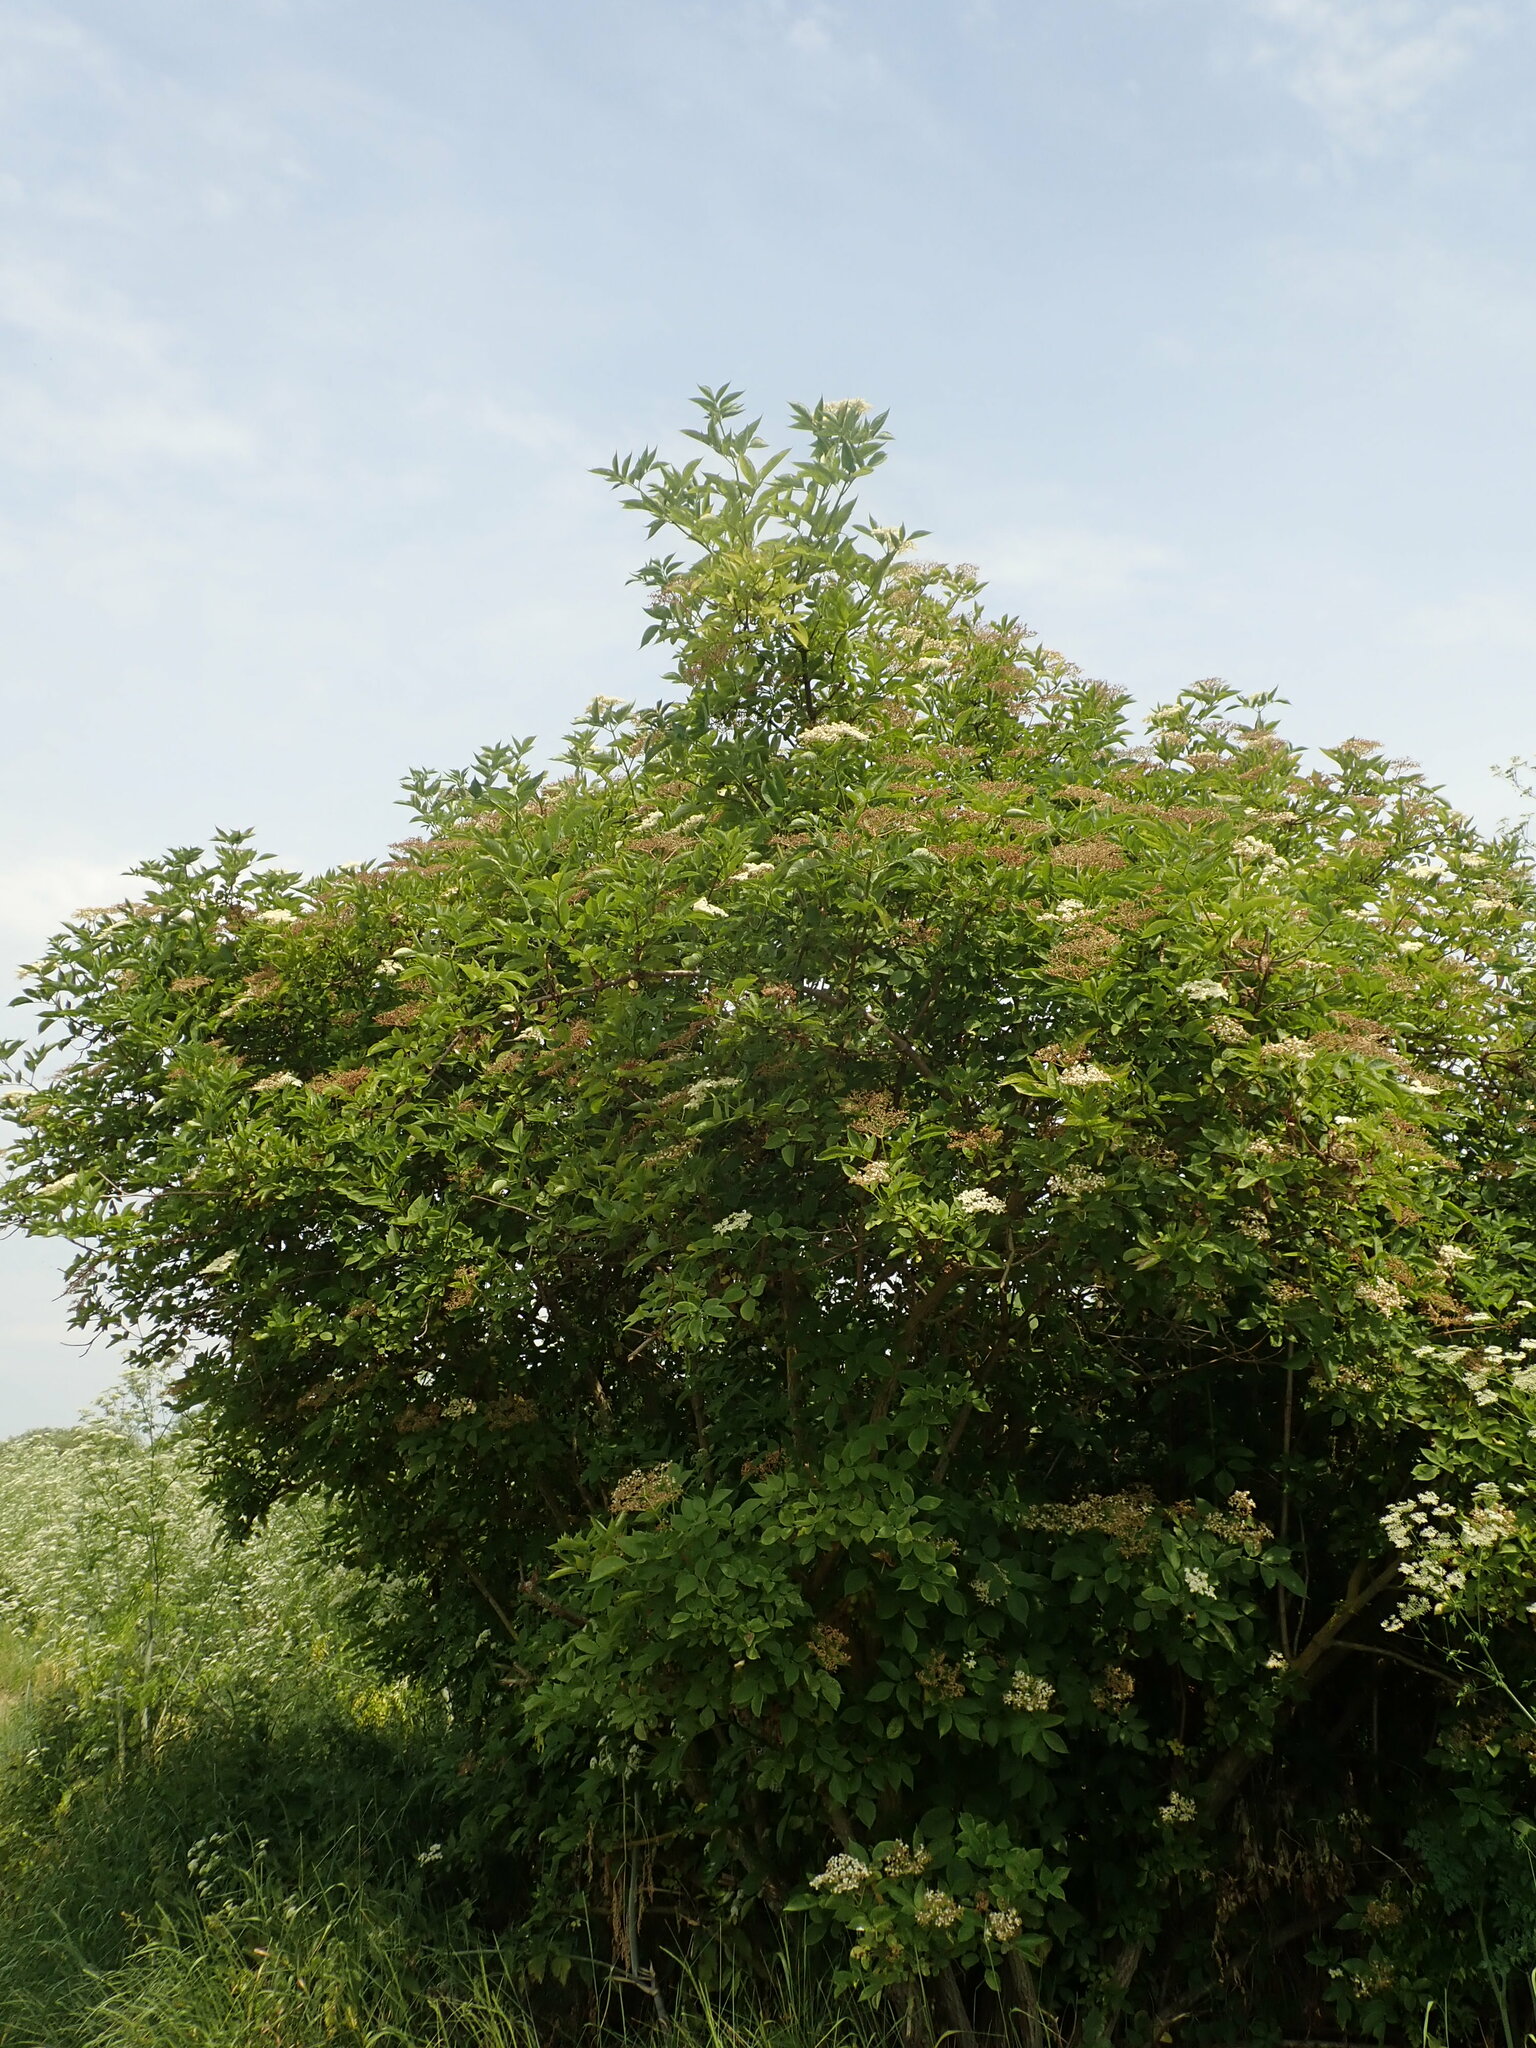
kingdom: Plantae
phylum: Tracheophyta
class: Magnoliopsida
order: Dipsacales
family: Viburnaceae
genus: Sambucus
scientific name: Sambucus nigra
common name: Elder
